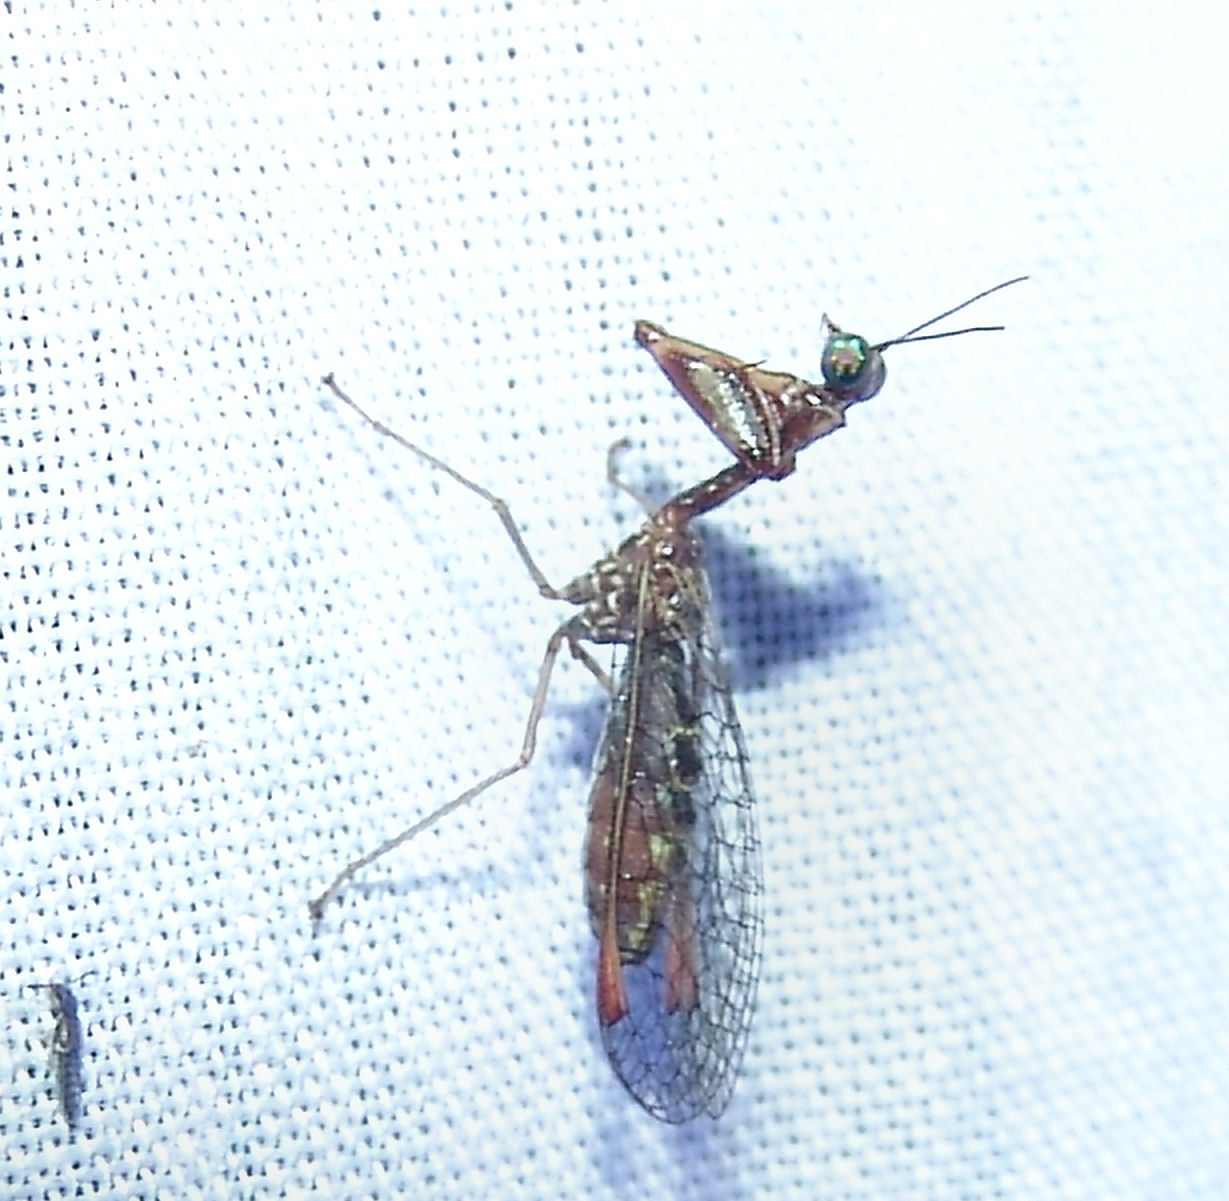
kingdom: Animalia
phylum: Arthropoda
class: Insecta
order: Neuroptera
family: Mantispidae
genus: Dicromantispa
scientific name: Dicromantispa sayi
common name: Say's mantidfly
